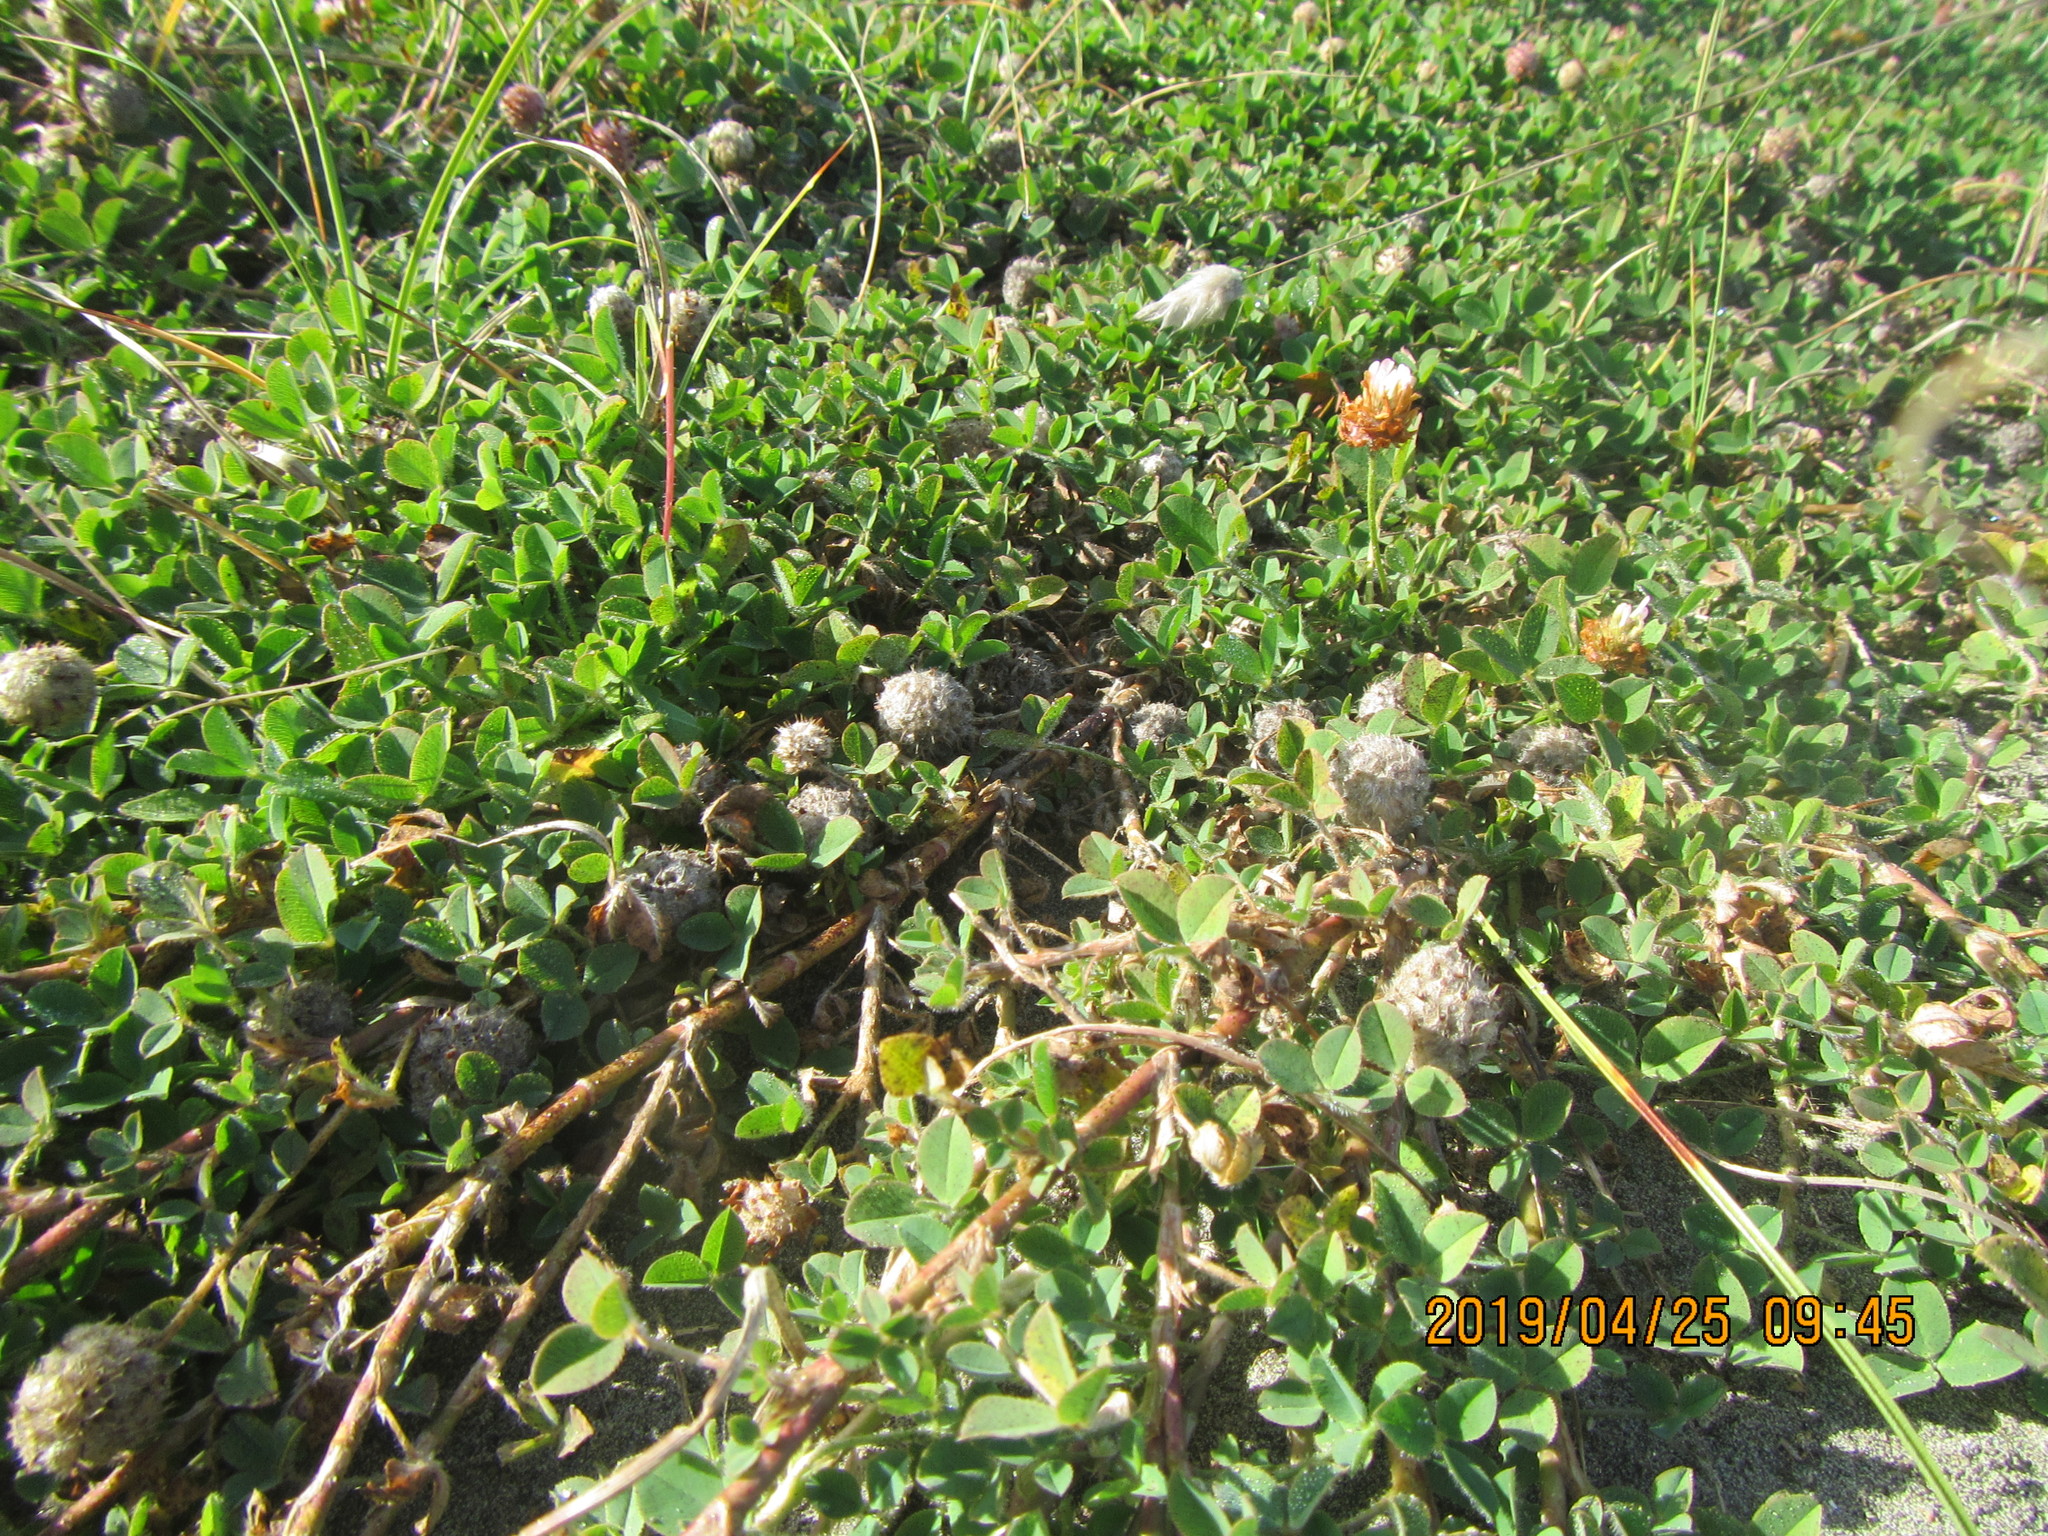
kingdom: Plantae
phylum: Tracheophyta
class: Magnoliopsida
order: Fabales
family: Fabaceae
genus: Trifolium
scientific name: Trifolium fragiferum
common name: Strawberry clover
